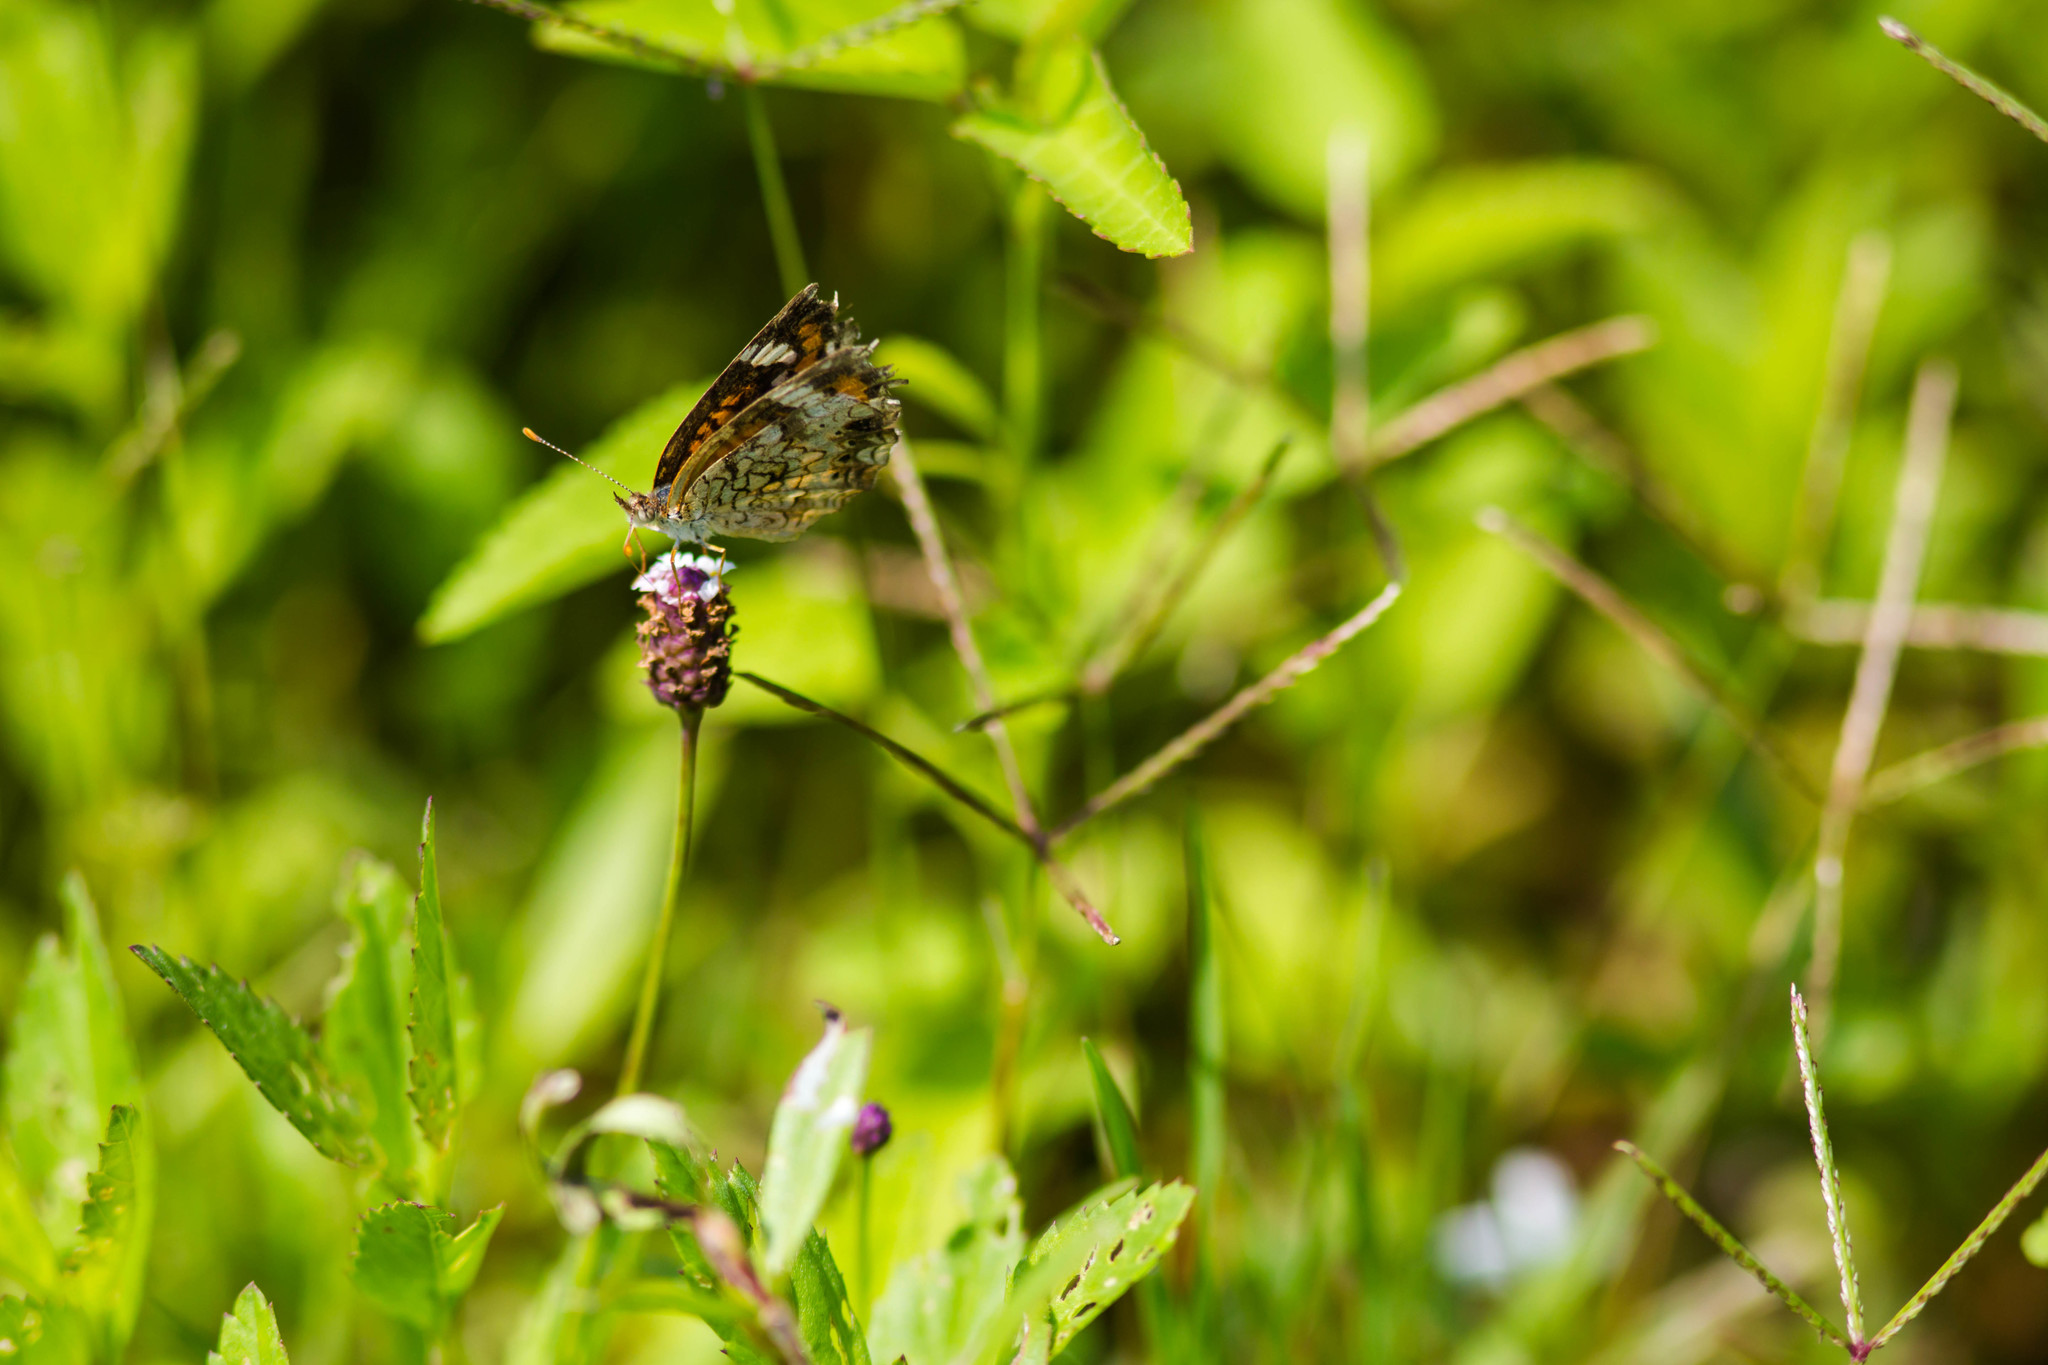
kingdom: Animalia
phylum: Arthropoda
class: Insecta
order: Lepidoptera
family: Nymphalidae
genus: Phyciodes
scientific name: Phyciodes phaon
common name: Phaon crescent
